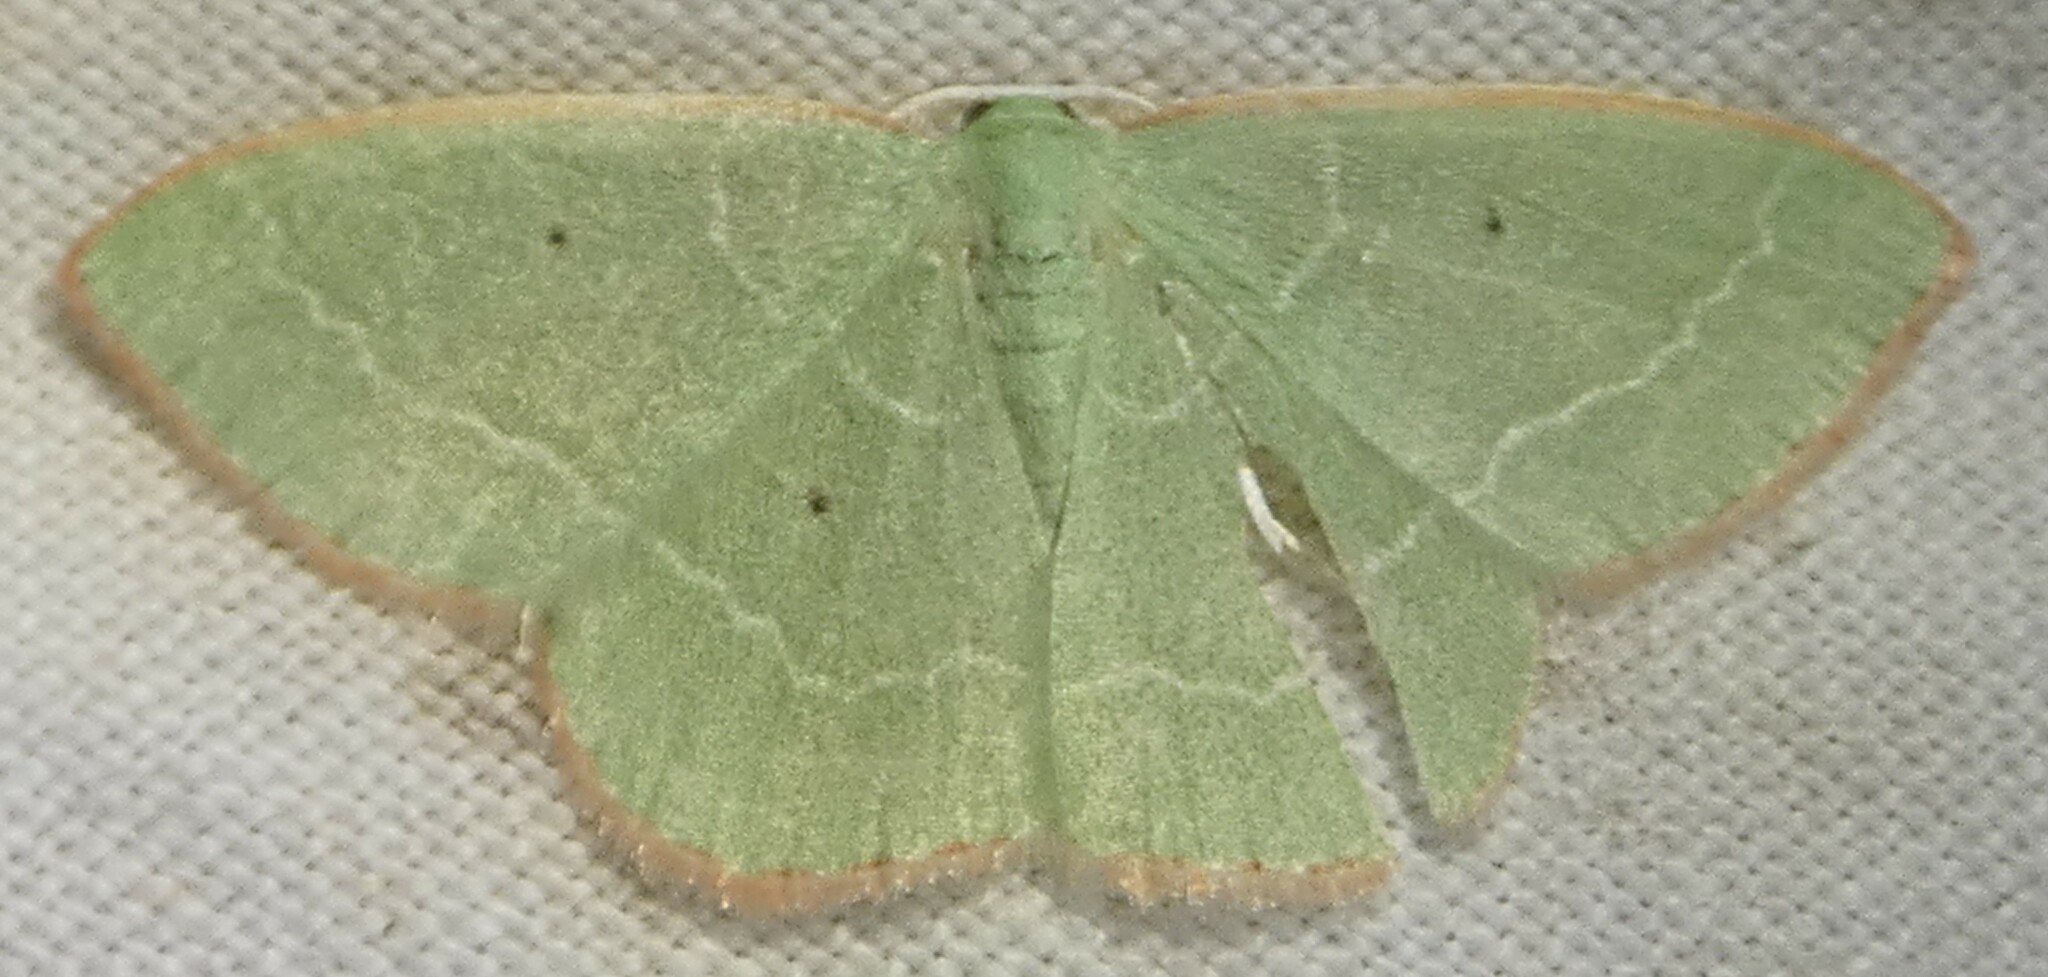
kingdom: Animalia
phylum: Arthropoda
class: Insecta
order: Lepidoptera
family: Geometridae
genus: Nemoria
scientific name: Nemoria elfa
